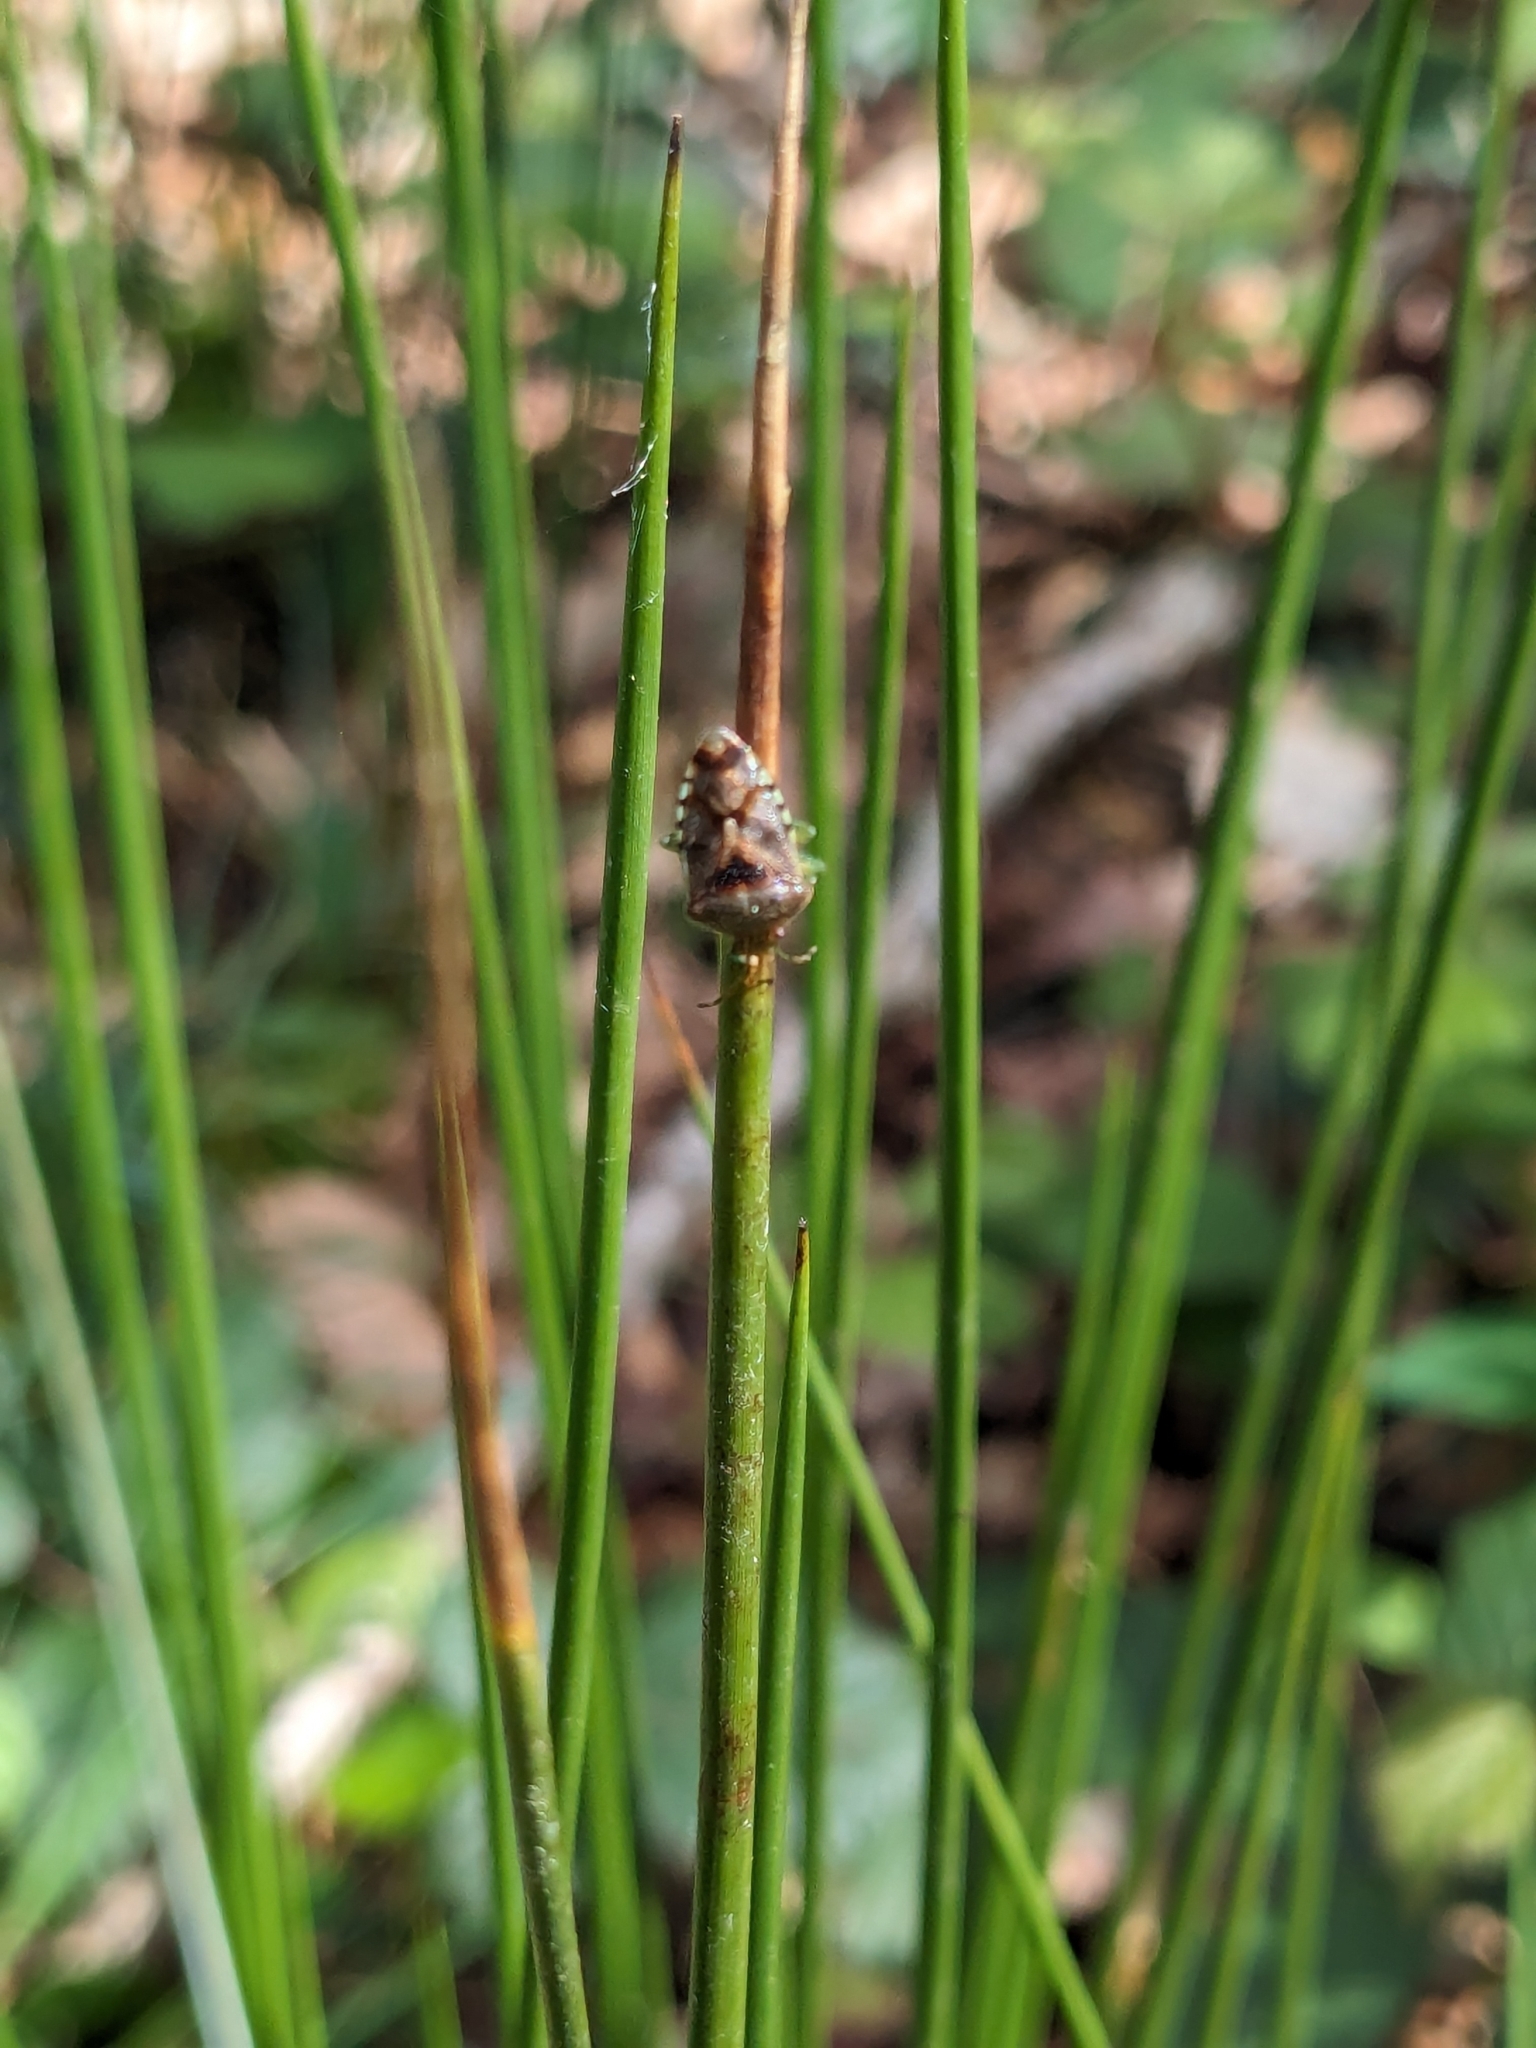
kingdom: Animalia
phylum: Arthropoda
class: Insecta
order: Hemiptera
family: Acanthosomatidae
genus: Elasmucha
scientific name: Elasmucha grisea
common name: Parent bug
